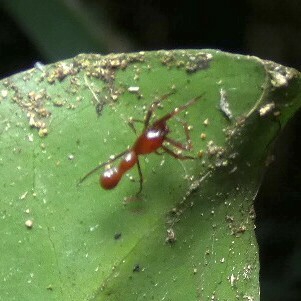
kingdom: Animalia
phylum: Arthropoda
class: Arachnida
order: Araneae
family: Araneidae
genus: Micrathena
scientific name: Micrathena schreibersi
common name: Orb weavers
